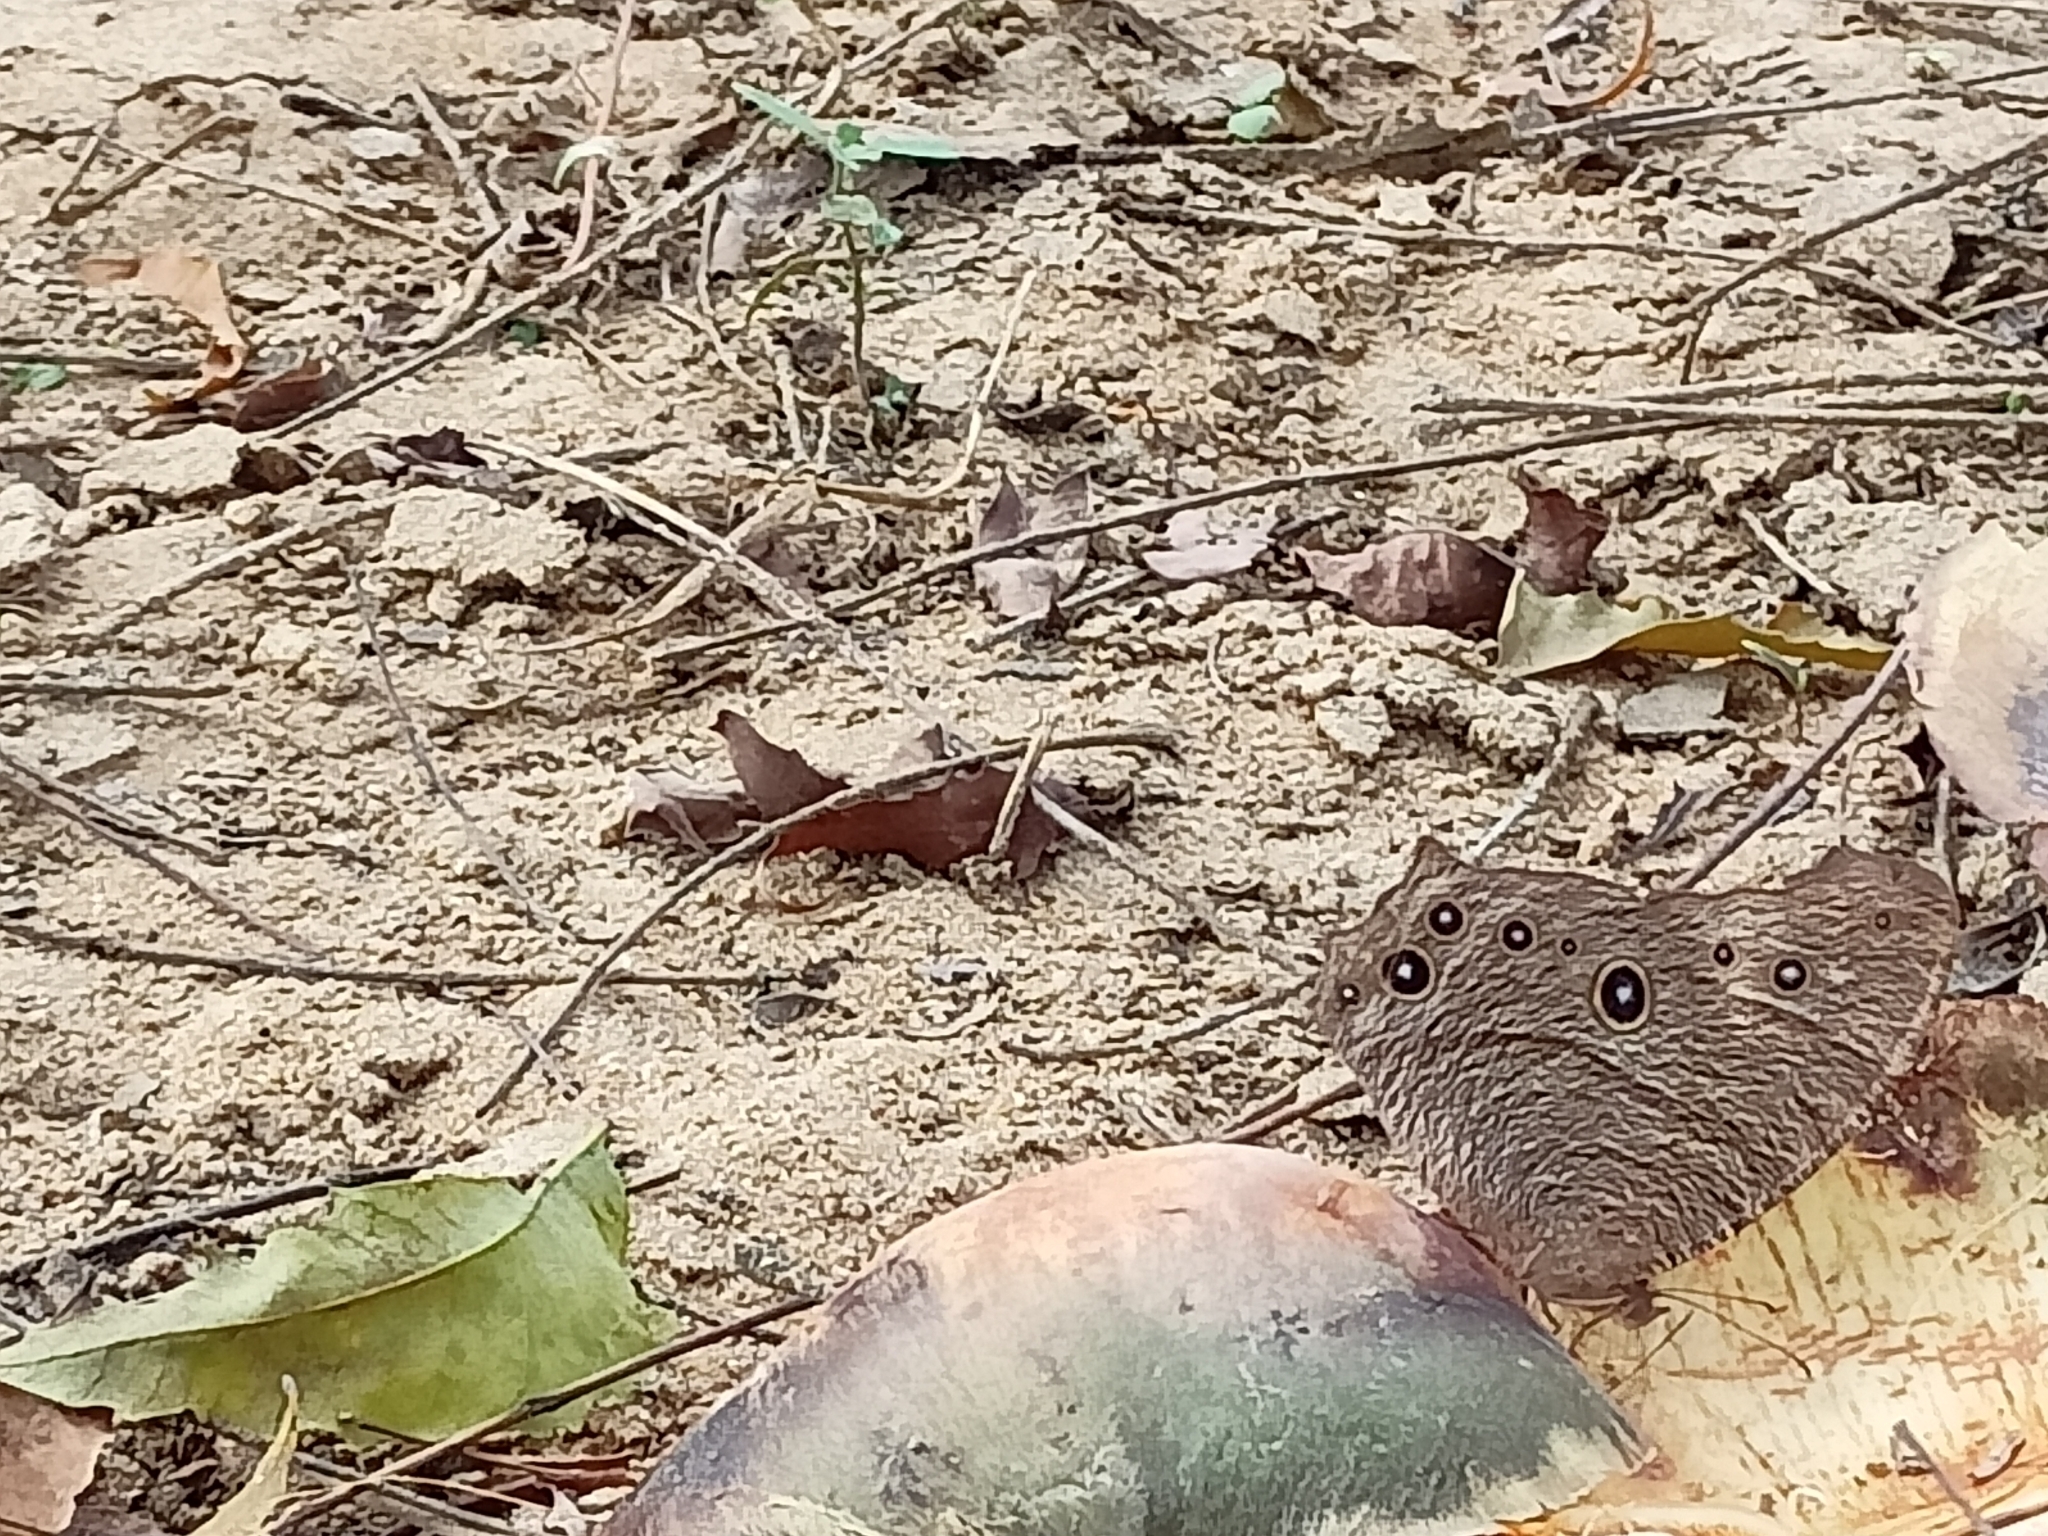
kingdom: Animalia
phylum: Arthropoda
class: Insecta
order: Lepidoptera
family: Nymphalidae
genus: Melanitis
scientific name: Melanitis leda
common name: Twilight brown
